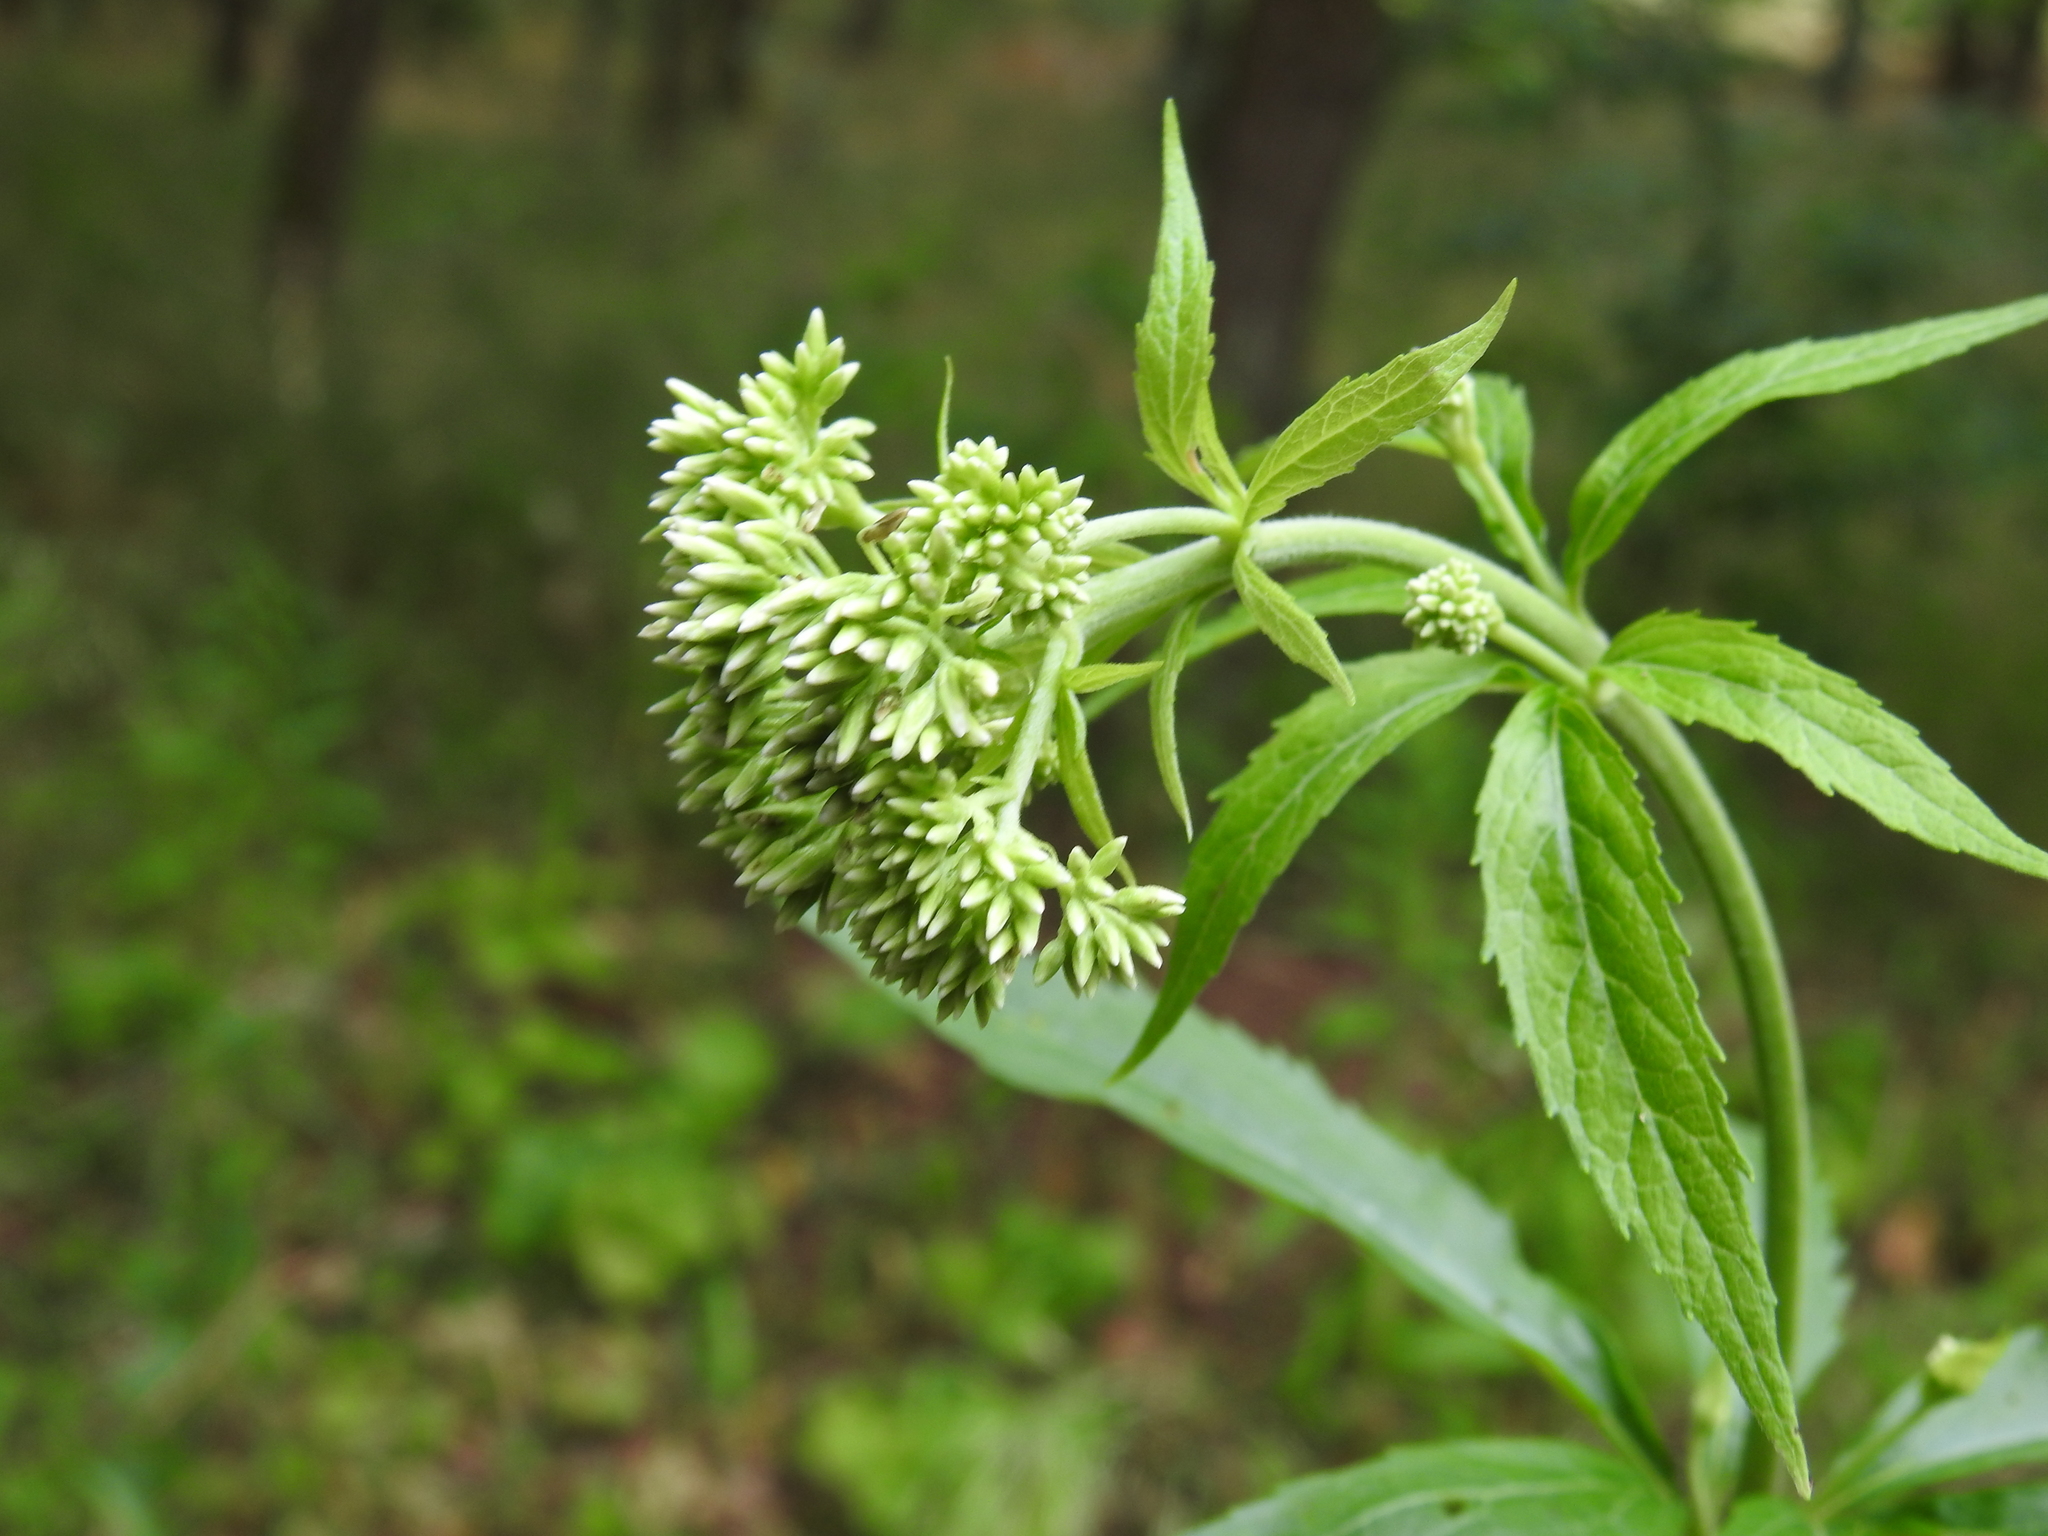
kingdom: Plantae
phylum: Tracheophyta
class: Magnoliopsida
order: Asterales
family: Asteraceae
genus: Eupatorium
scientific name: Eupatorium cannabinum
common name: Hemp-agrimony
